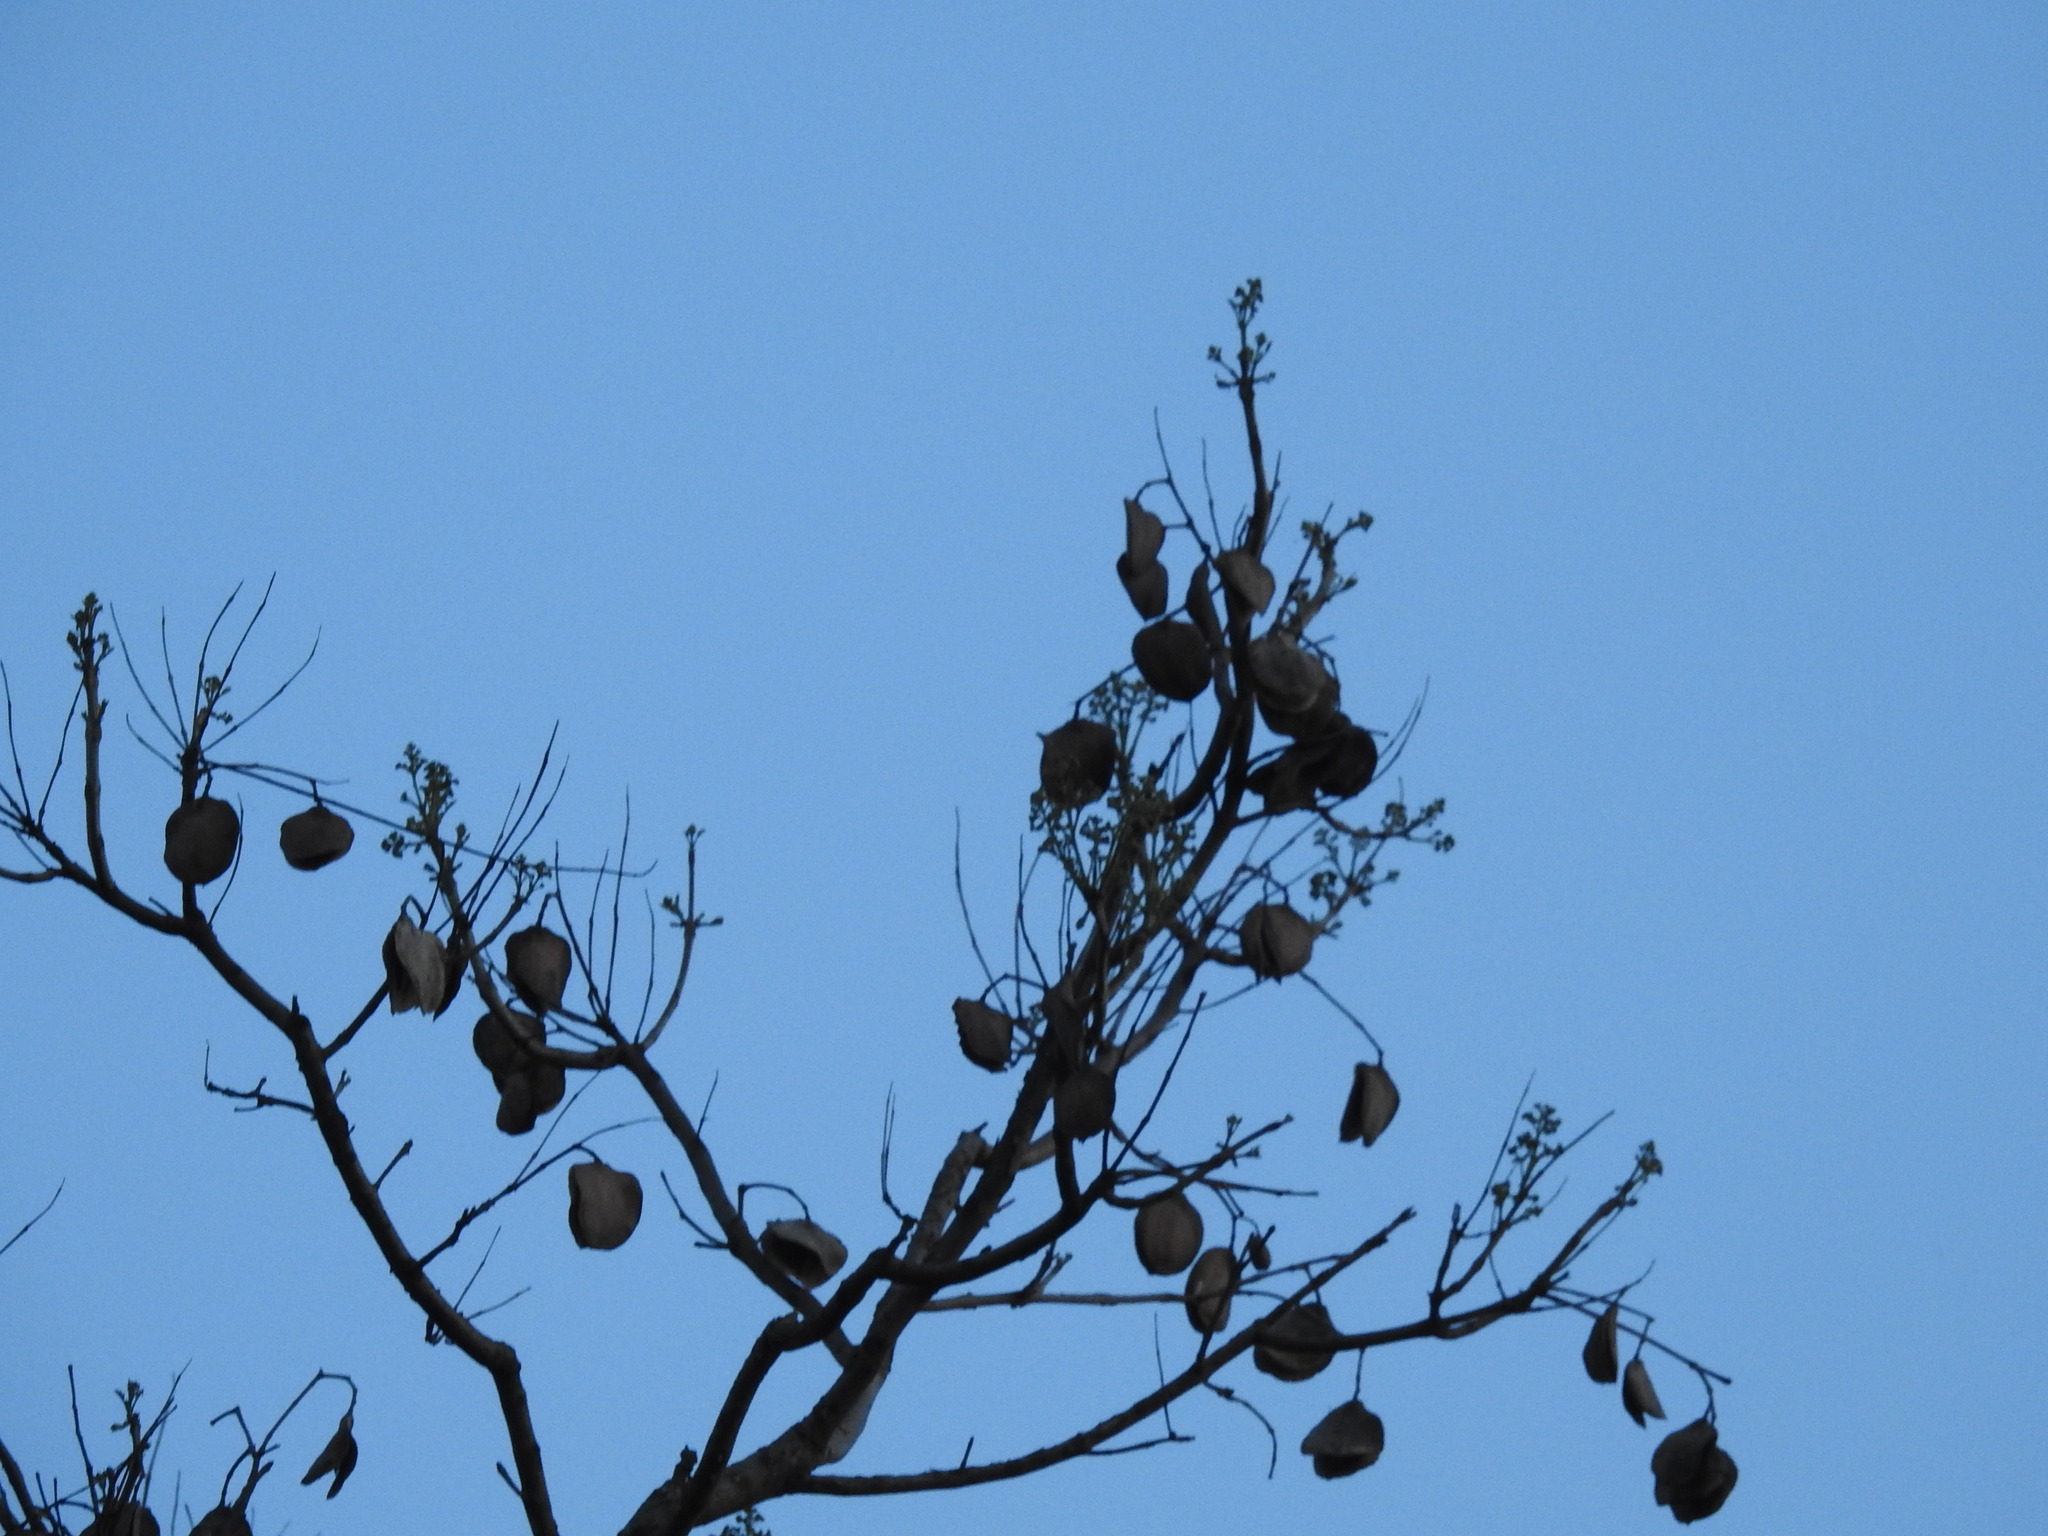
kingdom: Plantae
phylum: Tracheophyta
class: Magnoliopsida
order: Lamiales
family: Bignoniaceae
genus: Jacaranda
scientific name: Jacaranda mimosifolia
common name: Black poui
